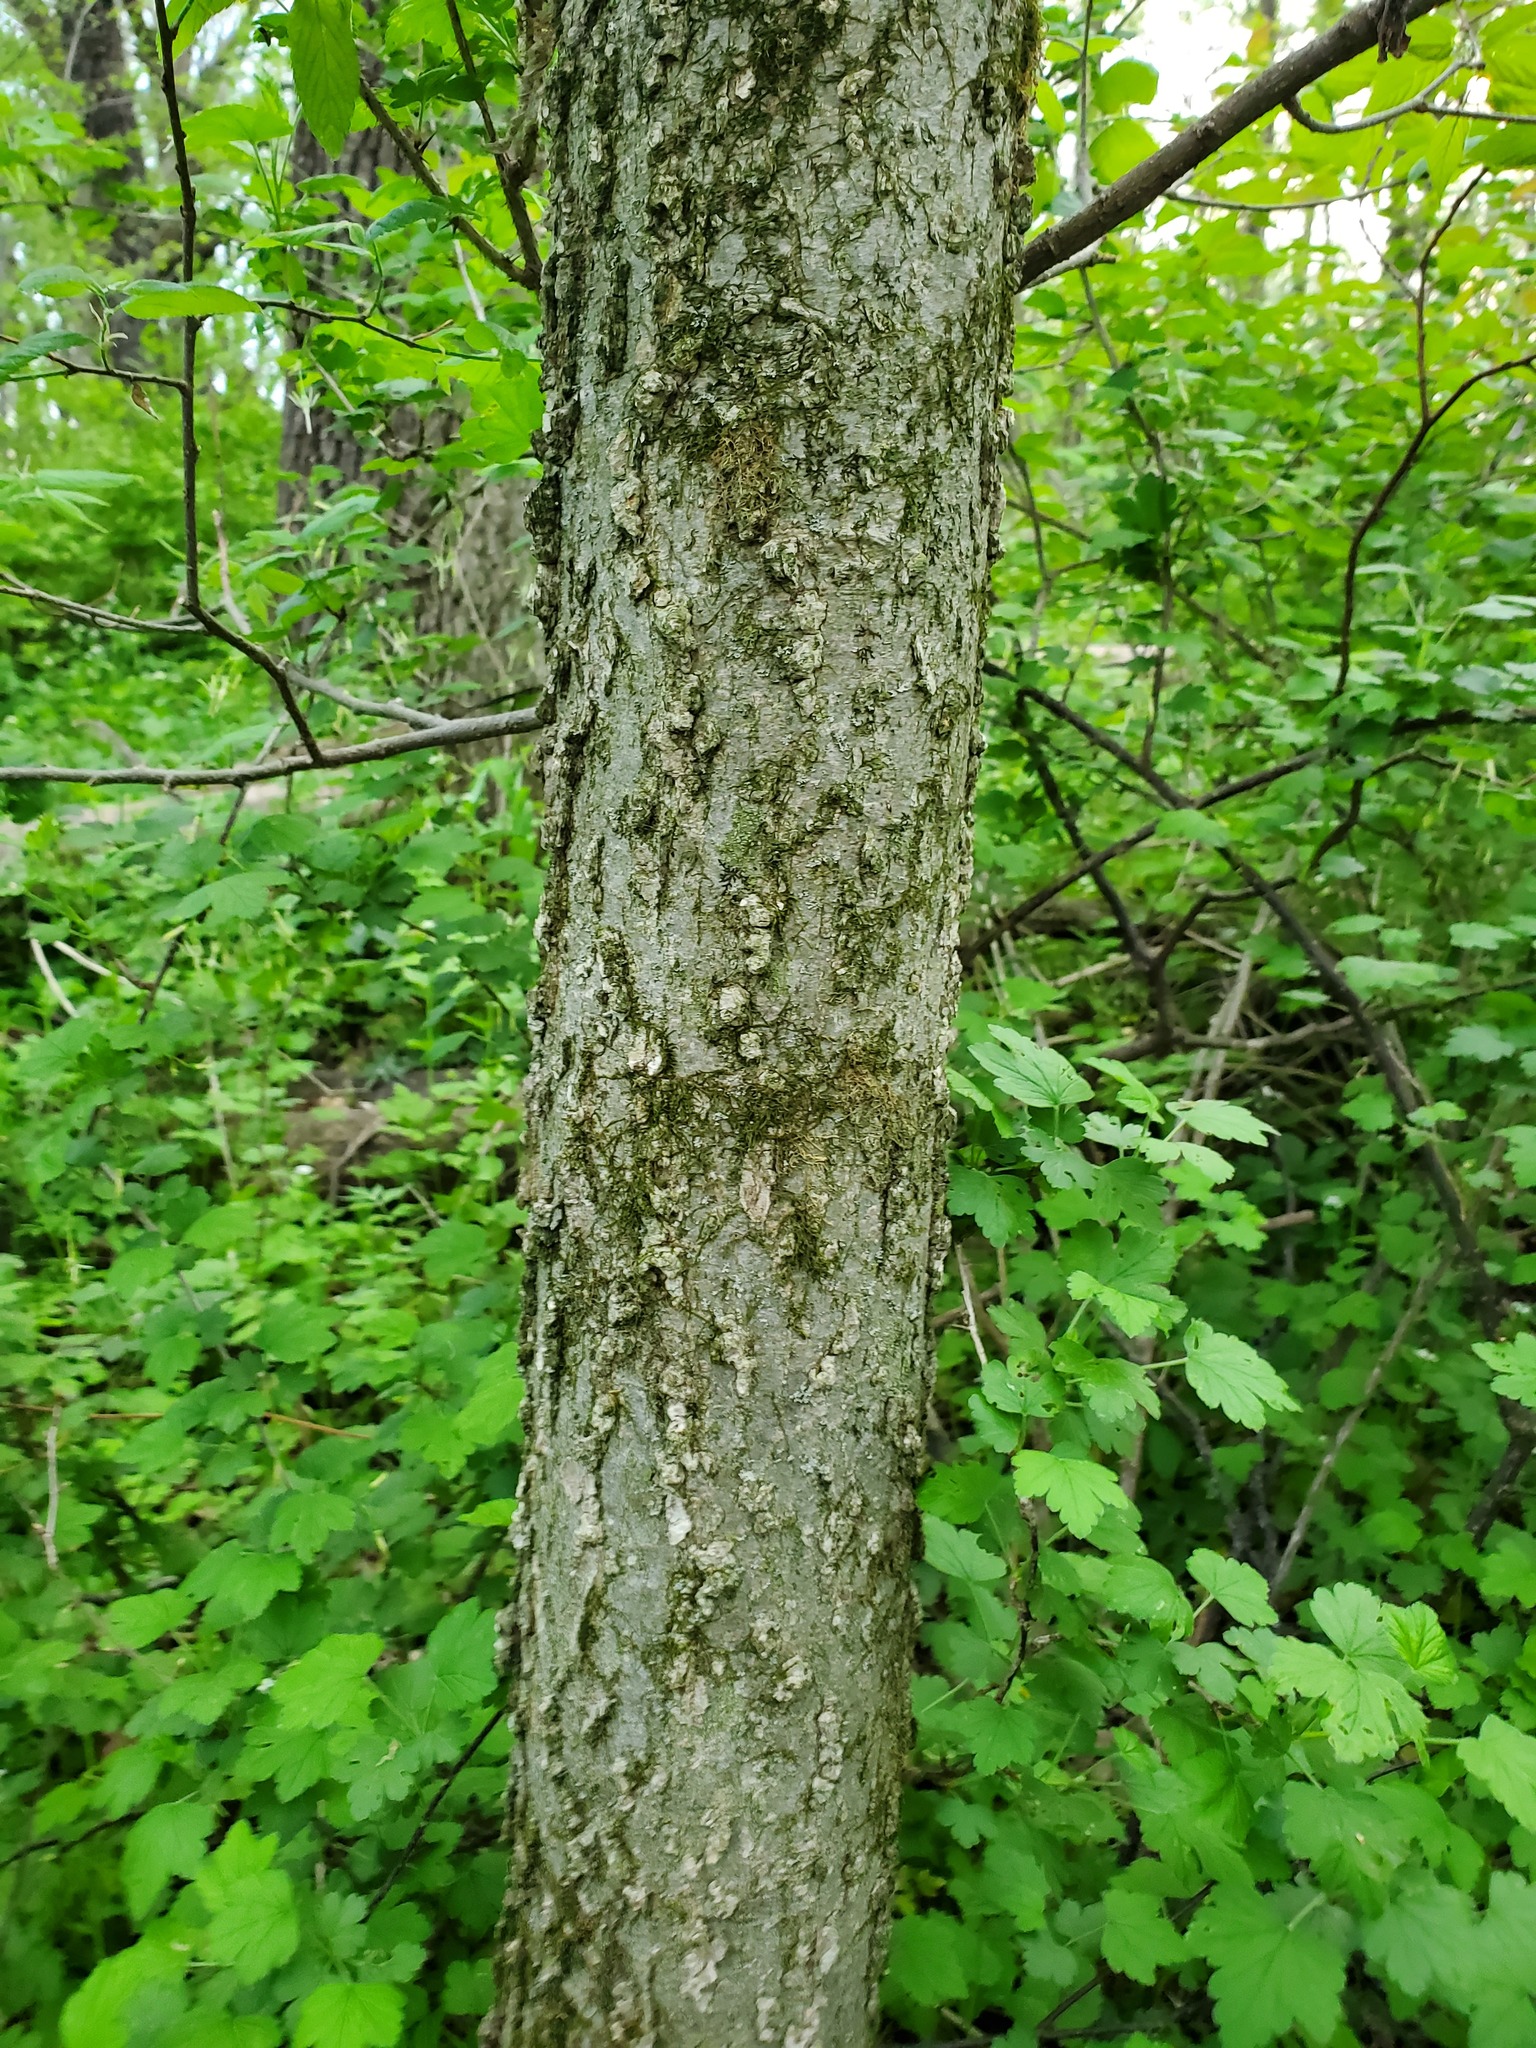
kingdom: Plantae
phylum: Tracheophyta
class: Magnoliopsida
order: Rosales
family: Cannabaceae
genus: Celtis
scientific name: Celtis occidentalis
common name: Common hackberry
